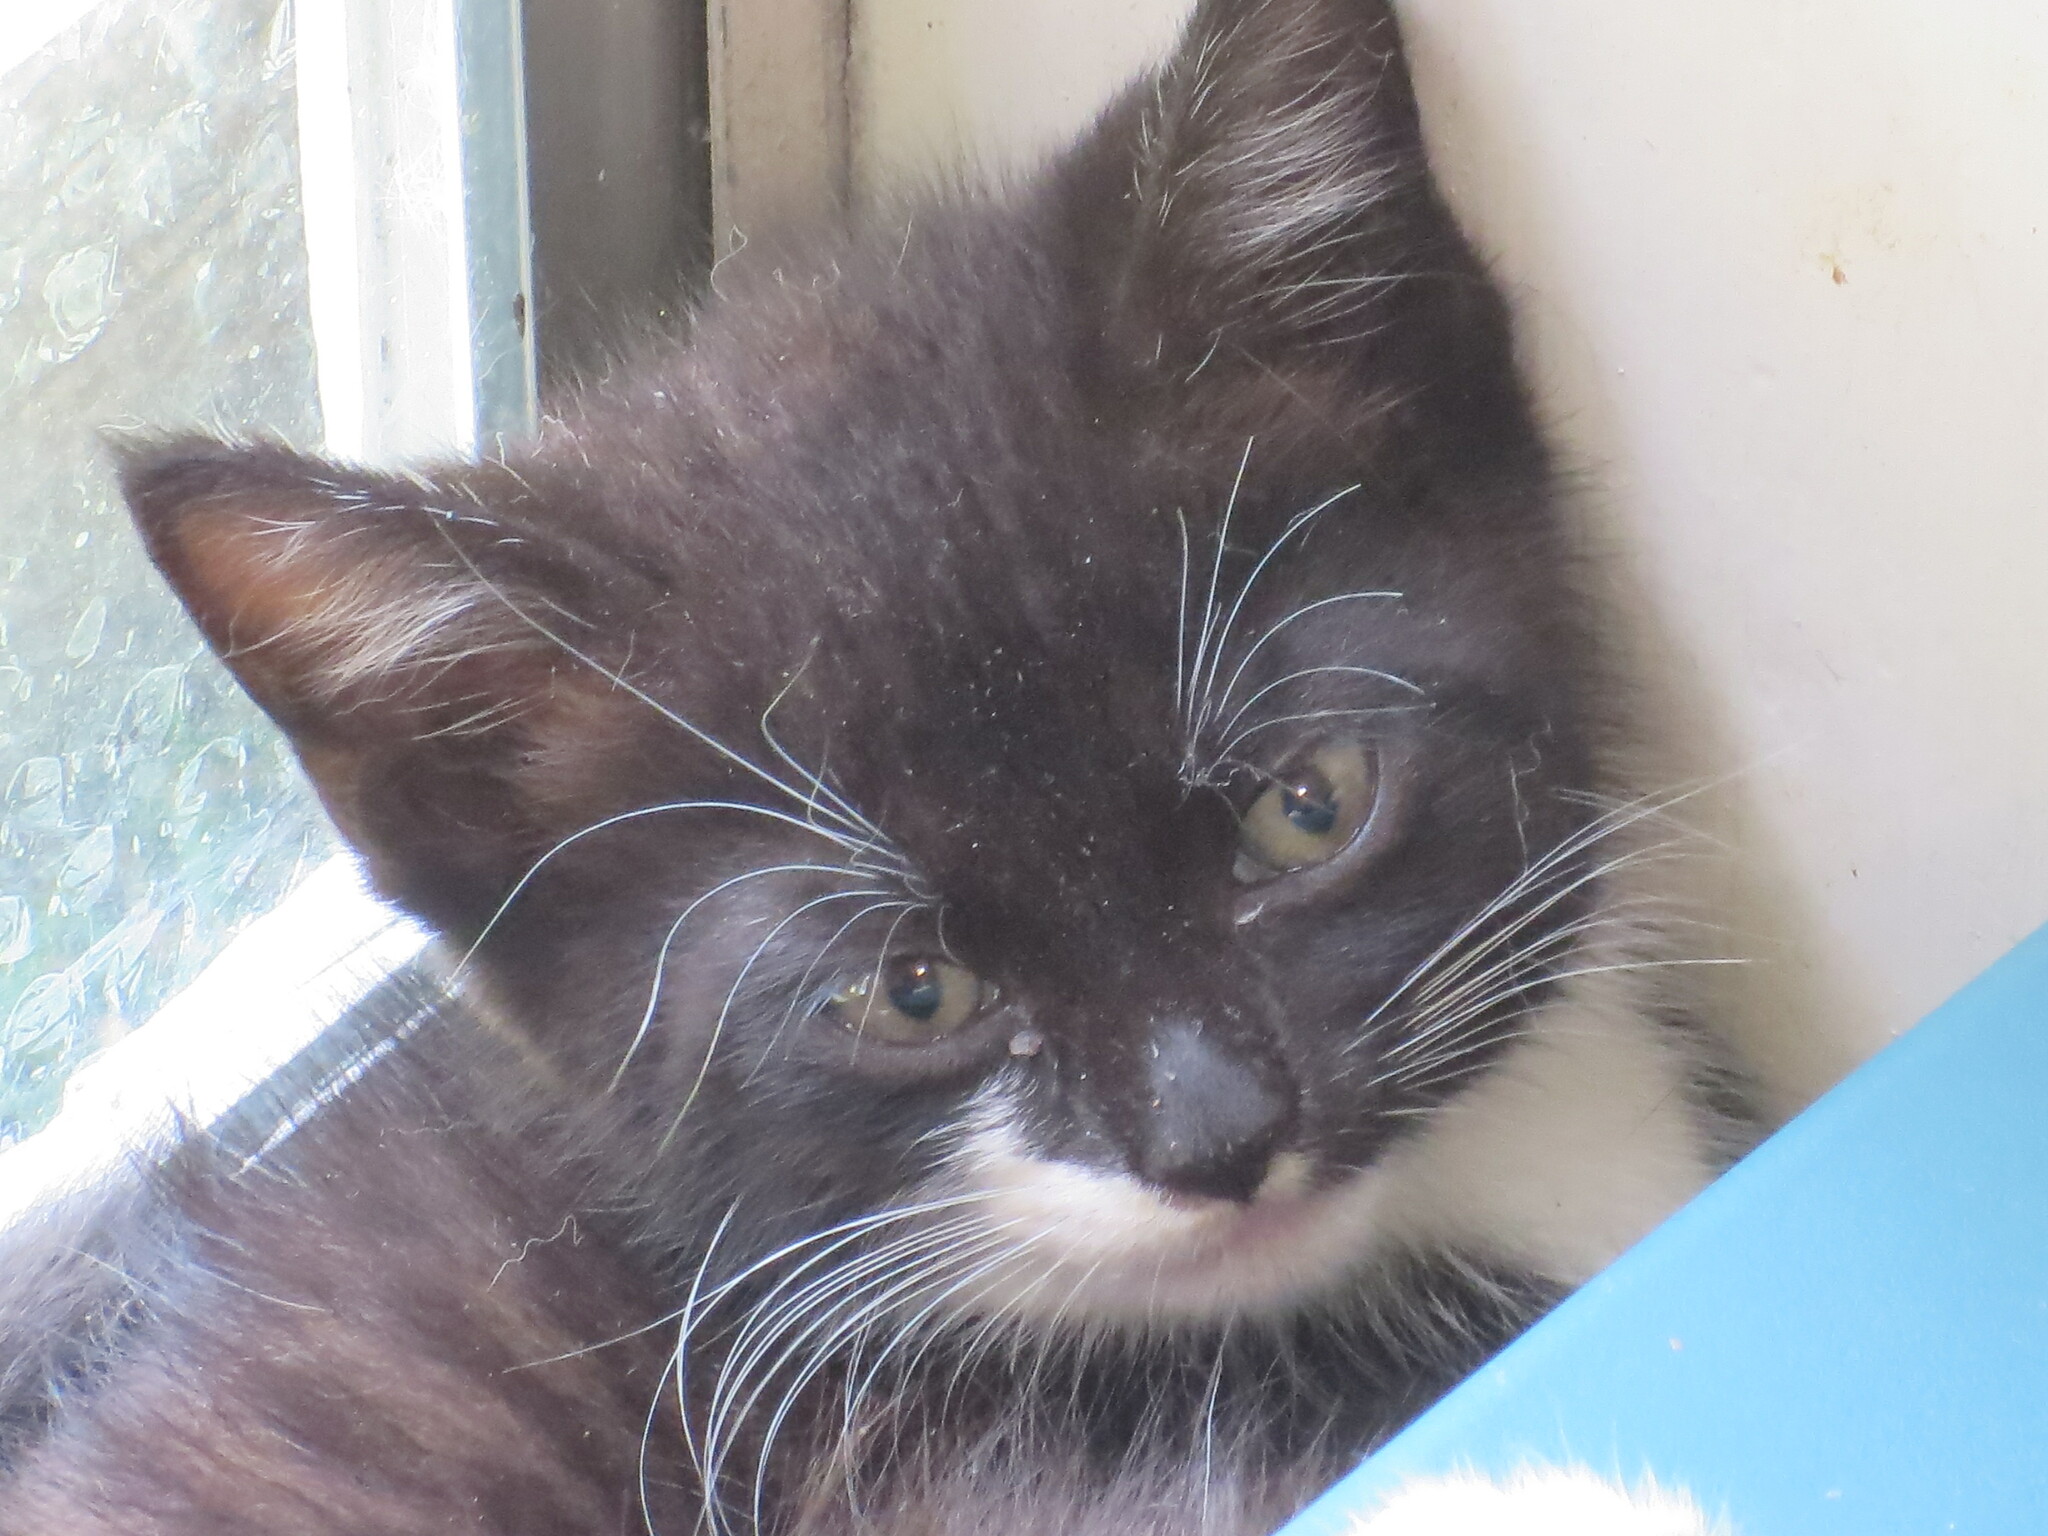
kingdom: Animalia
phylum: Chordata
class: Mammalia
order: Carnivora
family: Felidae
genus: Felis
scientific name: Felis catus
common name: Domestic cat
